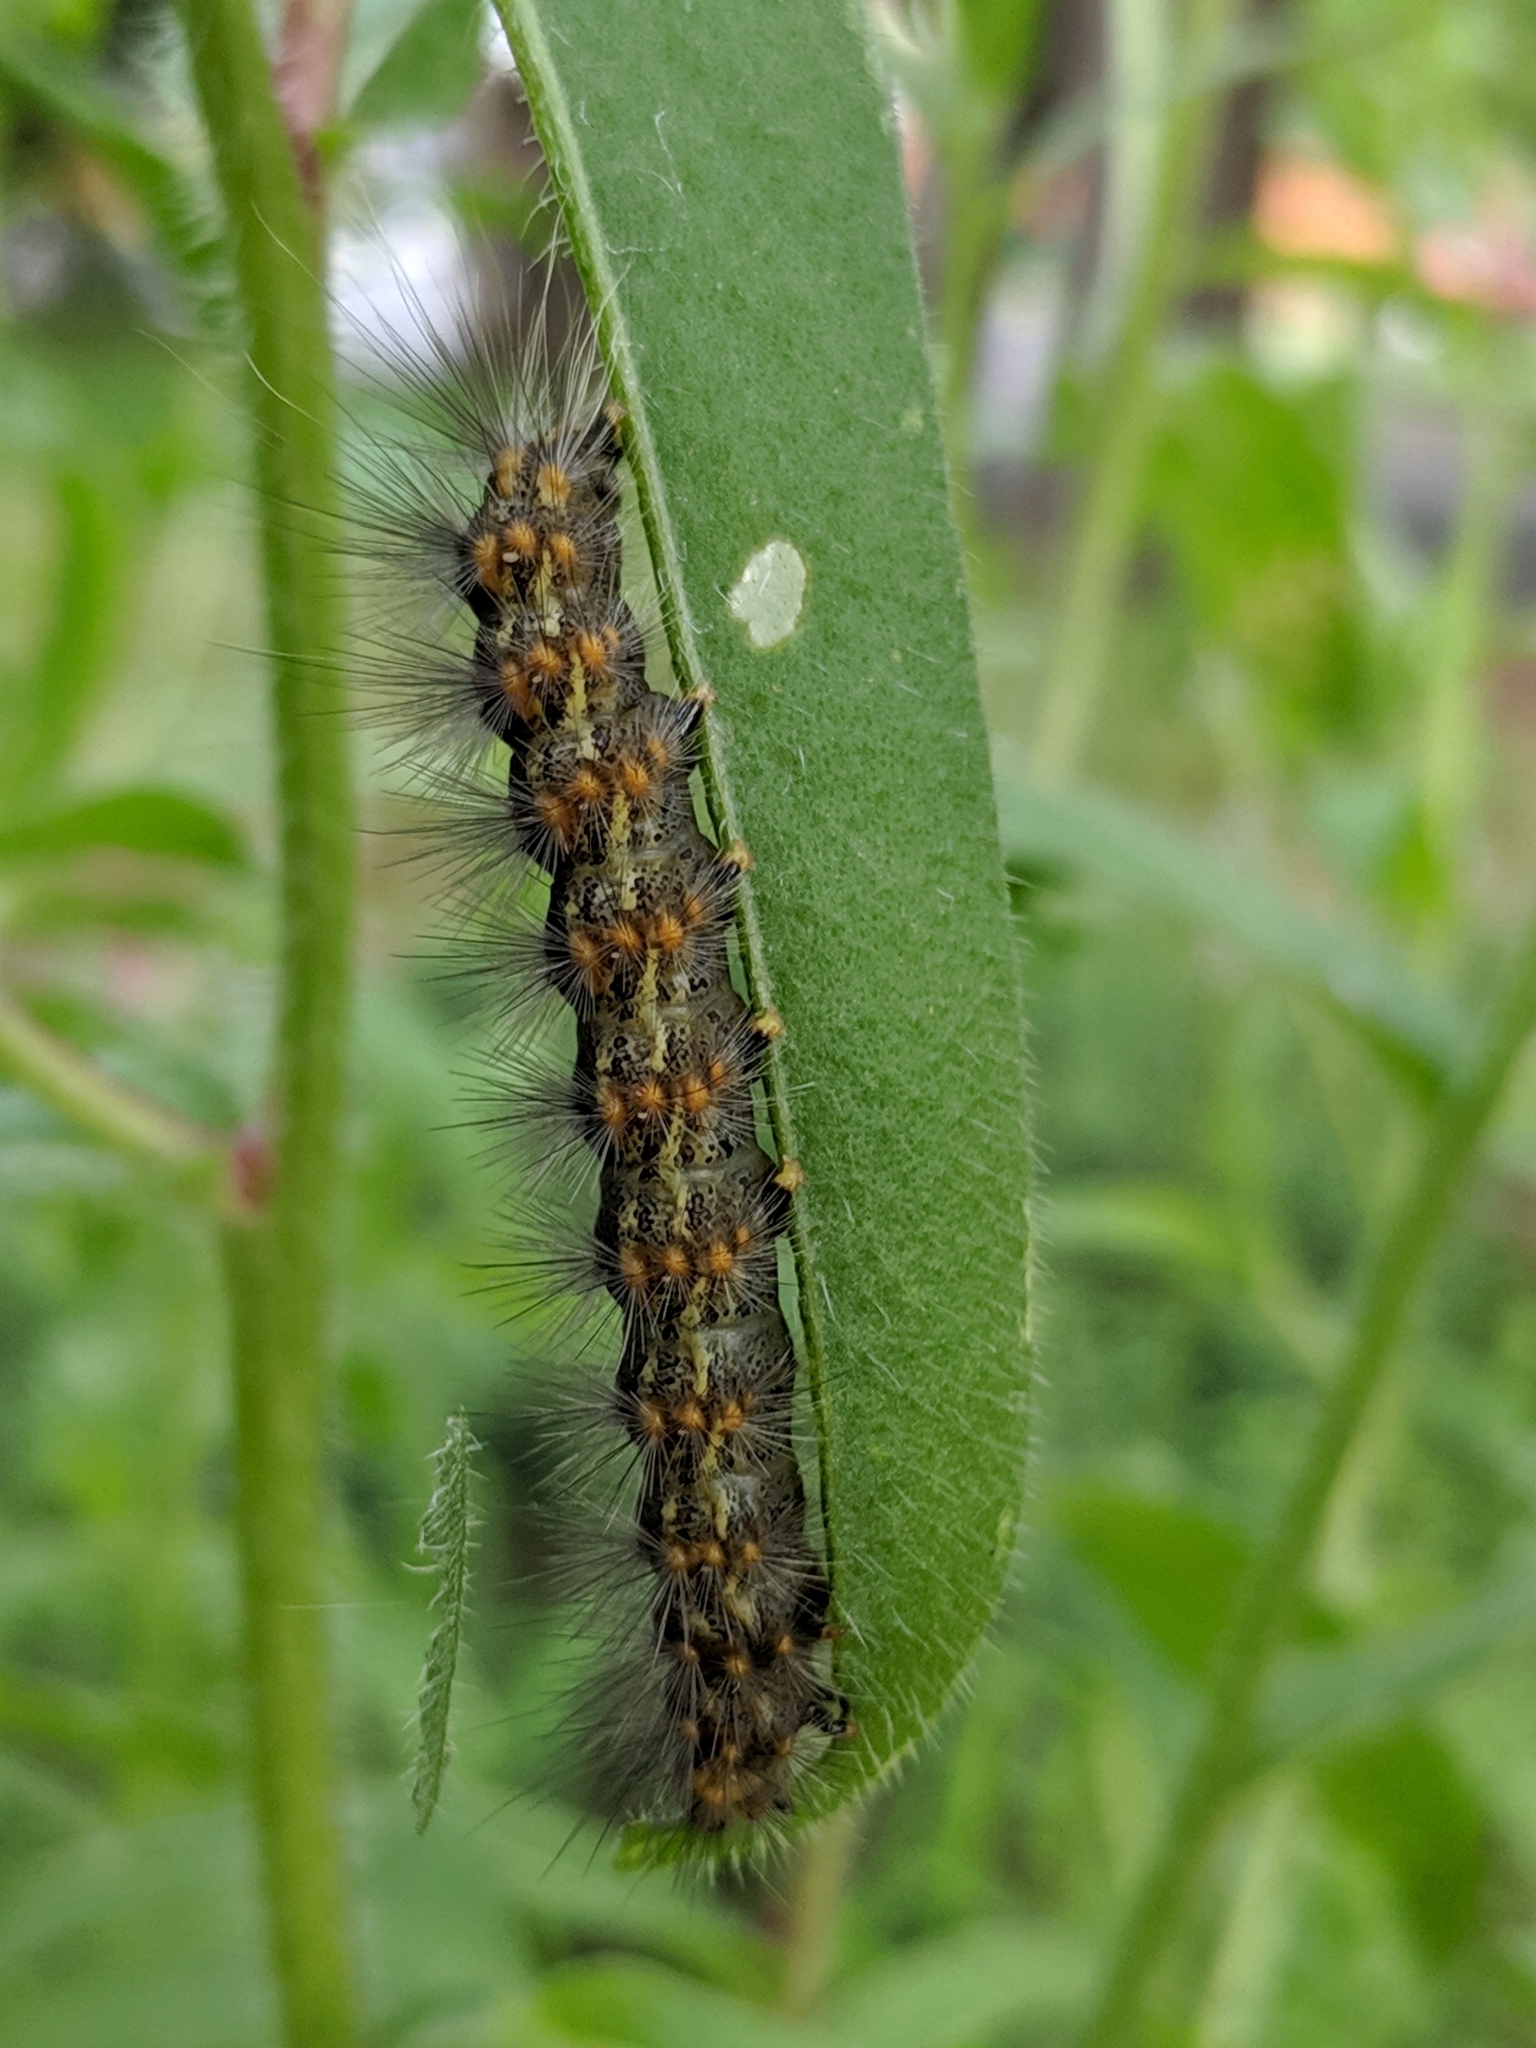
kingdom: Animalia
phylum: Arthropoda
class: Insecta
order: Lepidoptera
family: Erebidae
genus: Estigmene
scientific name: Estigmene acrea
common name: Salt marsh moth
